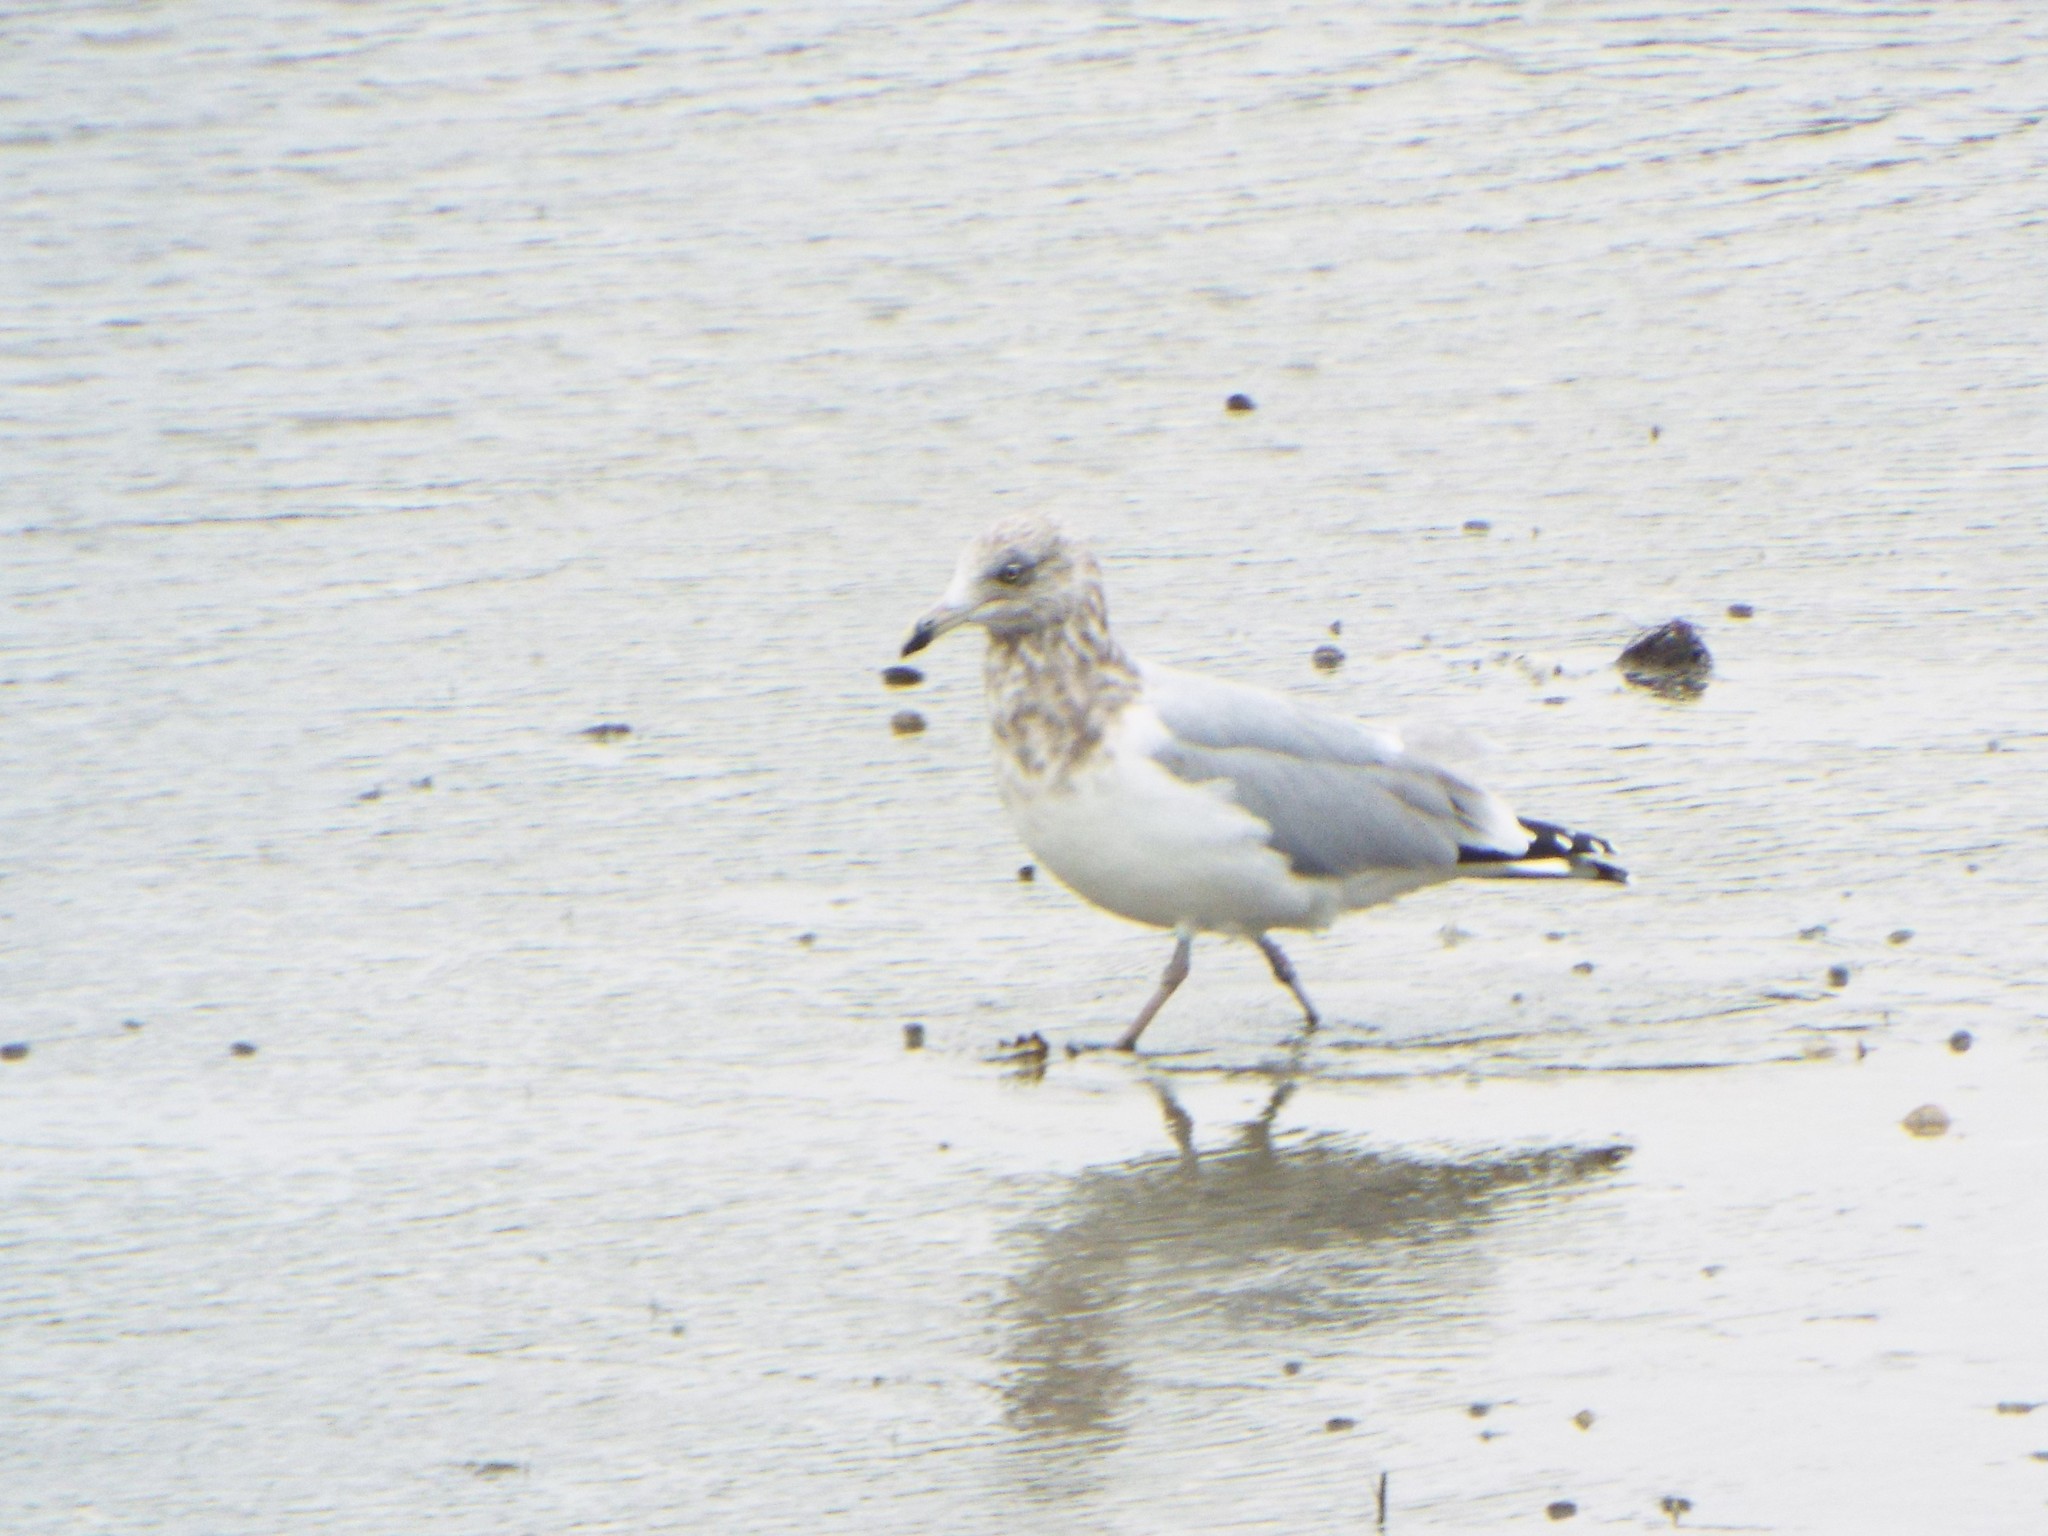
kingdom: Animalia
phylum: Chordata
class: Aves
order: Charadriiformes
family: Laridae
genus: Larus
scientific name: Larus argentatus
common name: Herring gull
